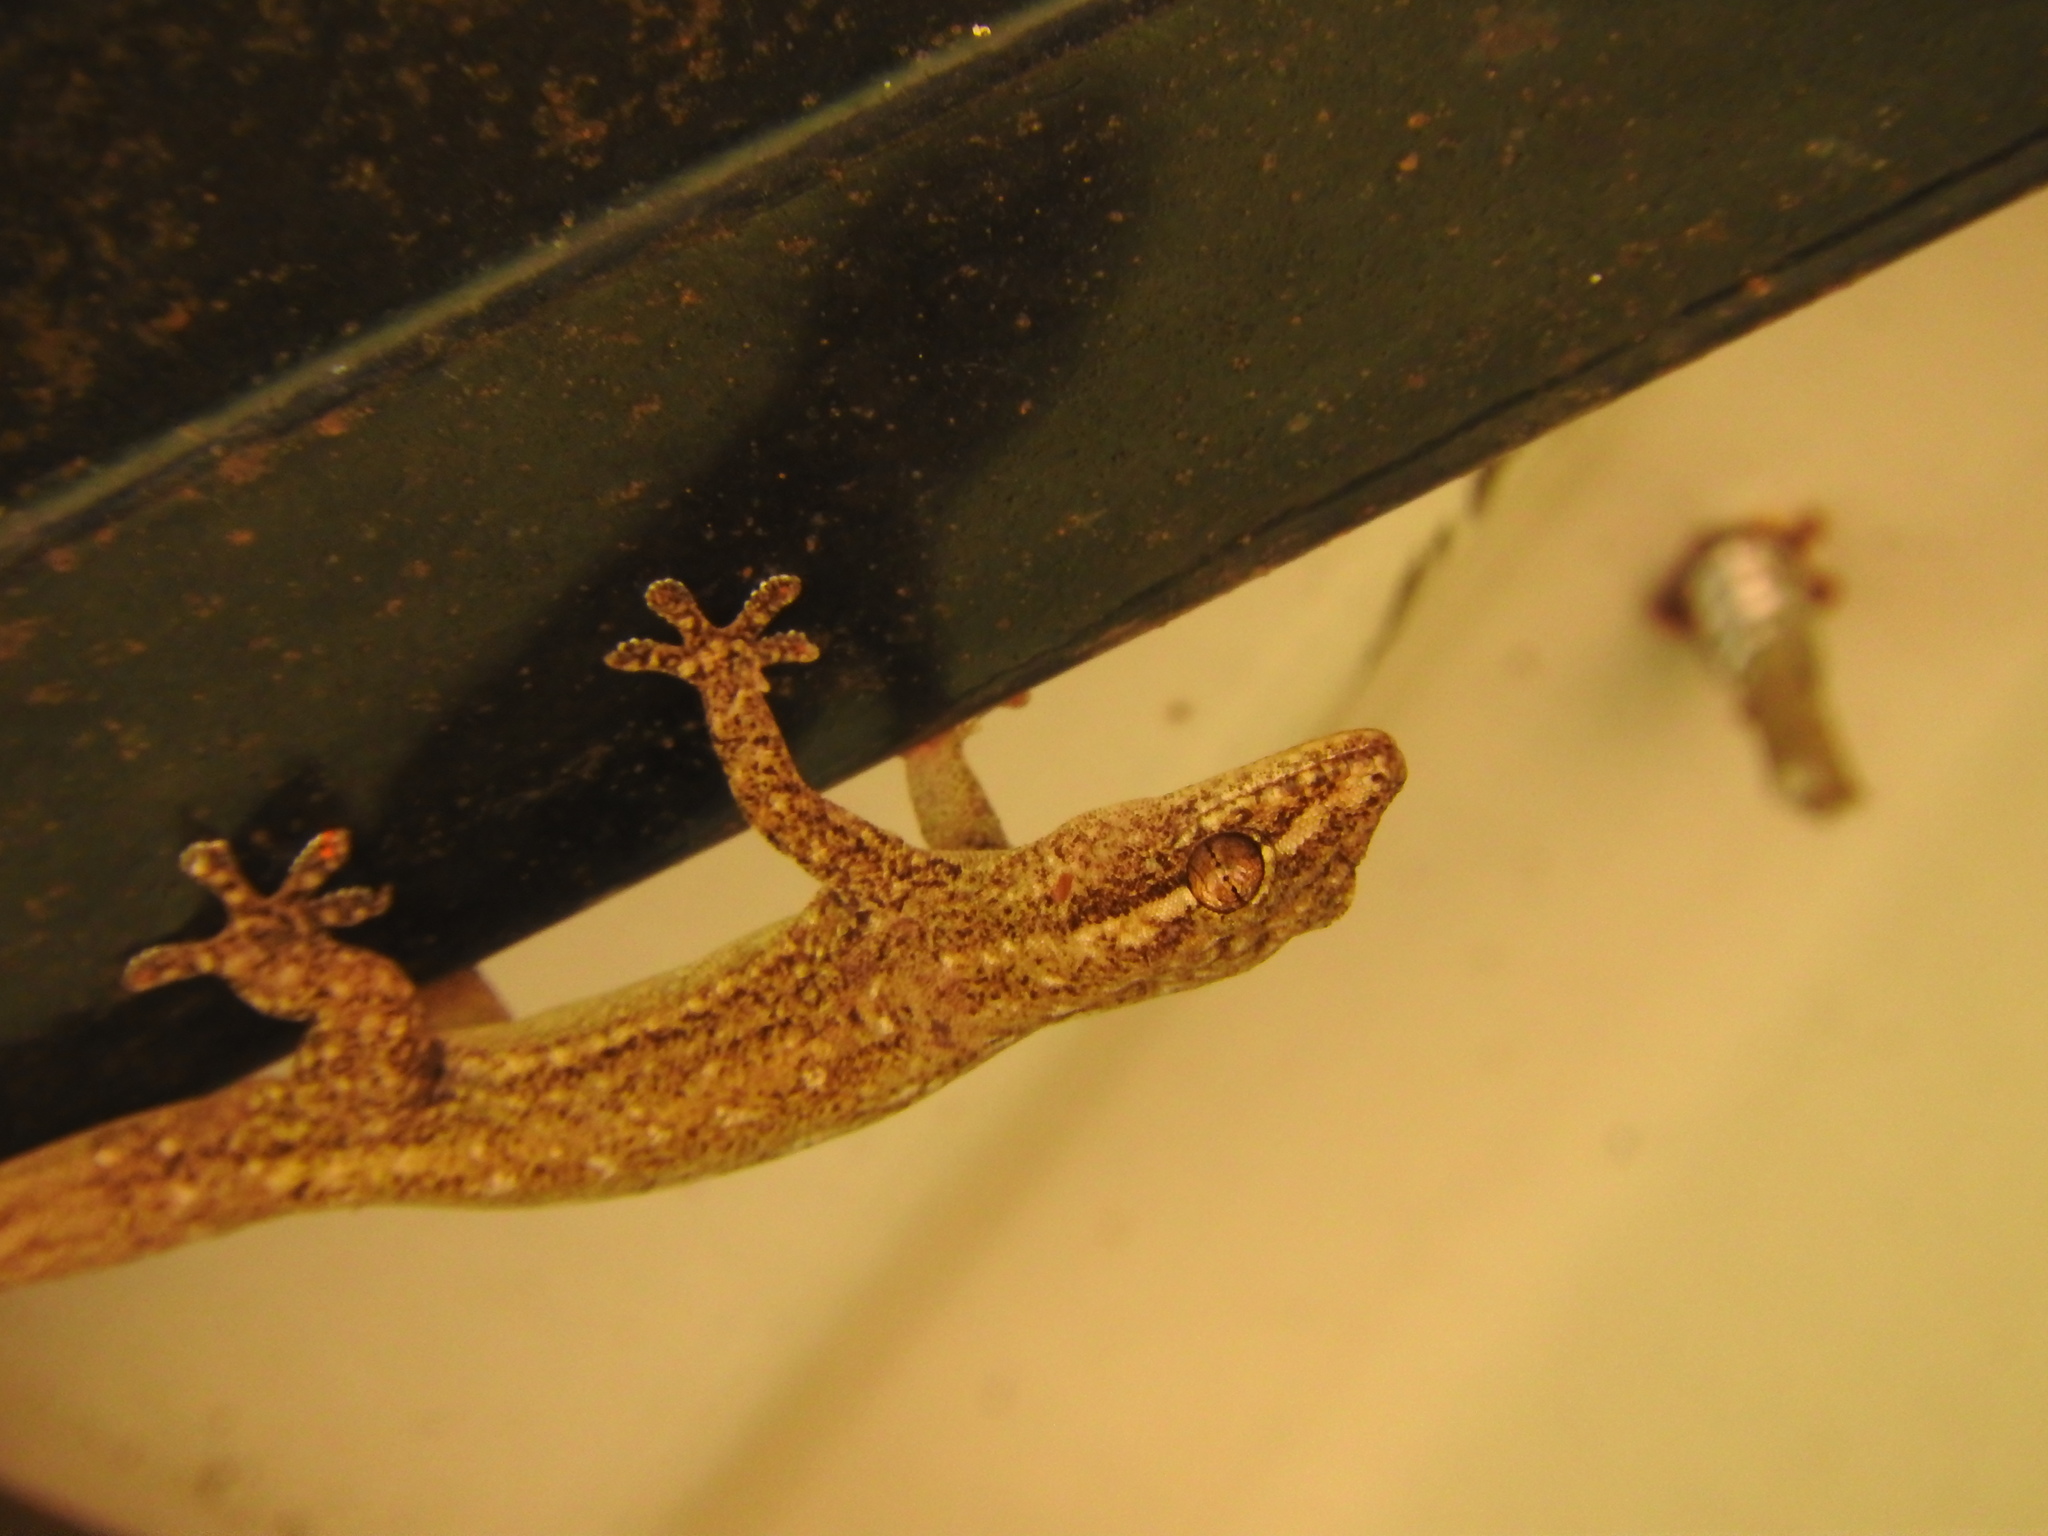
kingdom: Animalia
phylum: Chordata
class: Squamata
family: Gekkonidae
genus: Hemidactylus
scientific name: Hemidactylus frenatus
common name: Common house gecko
